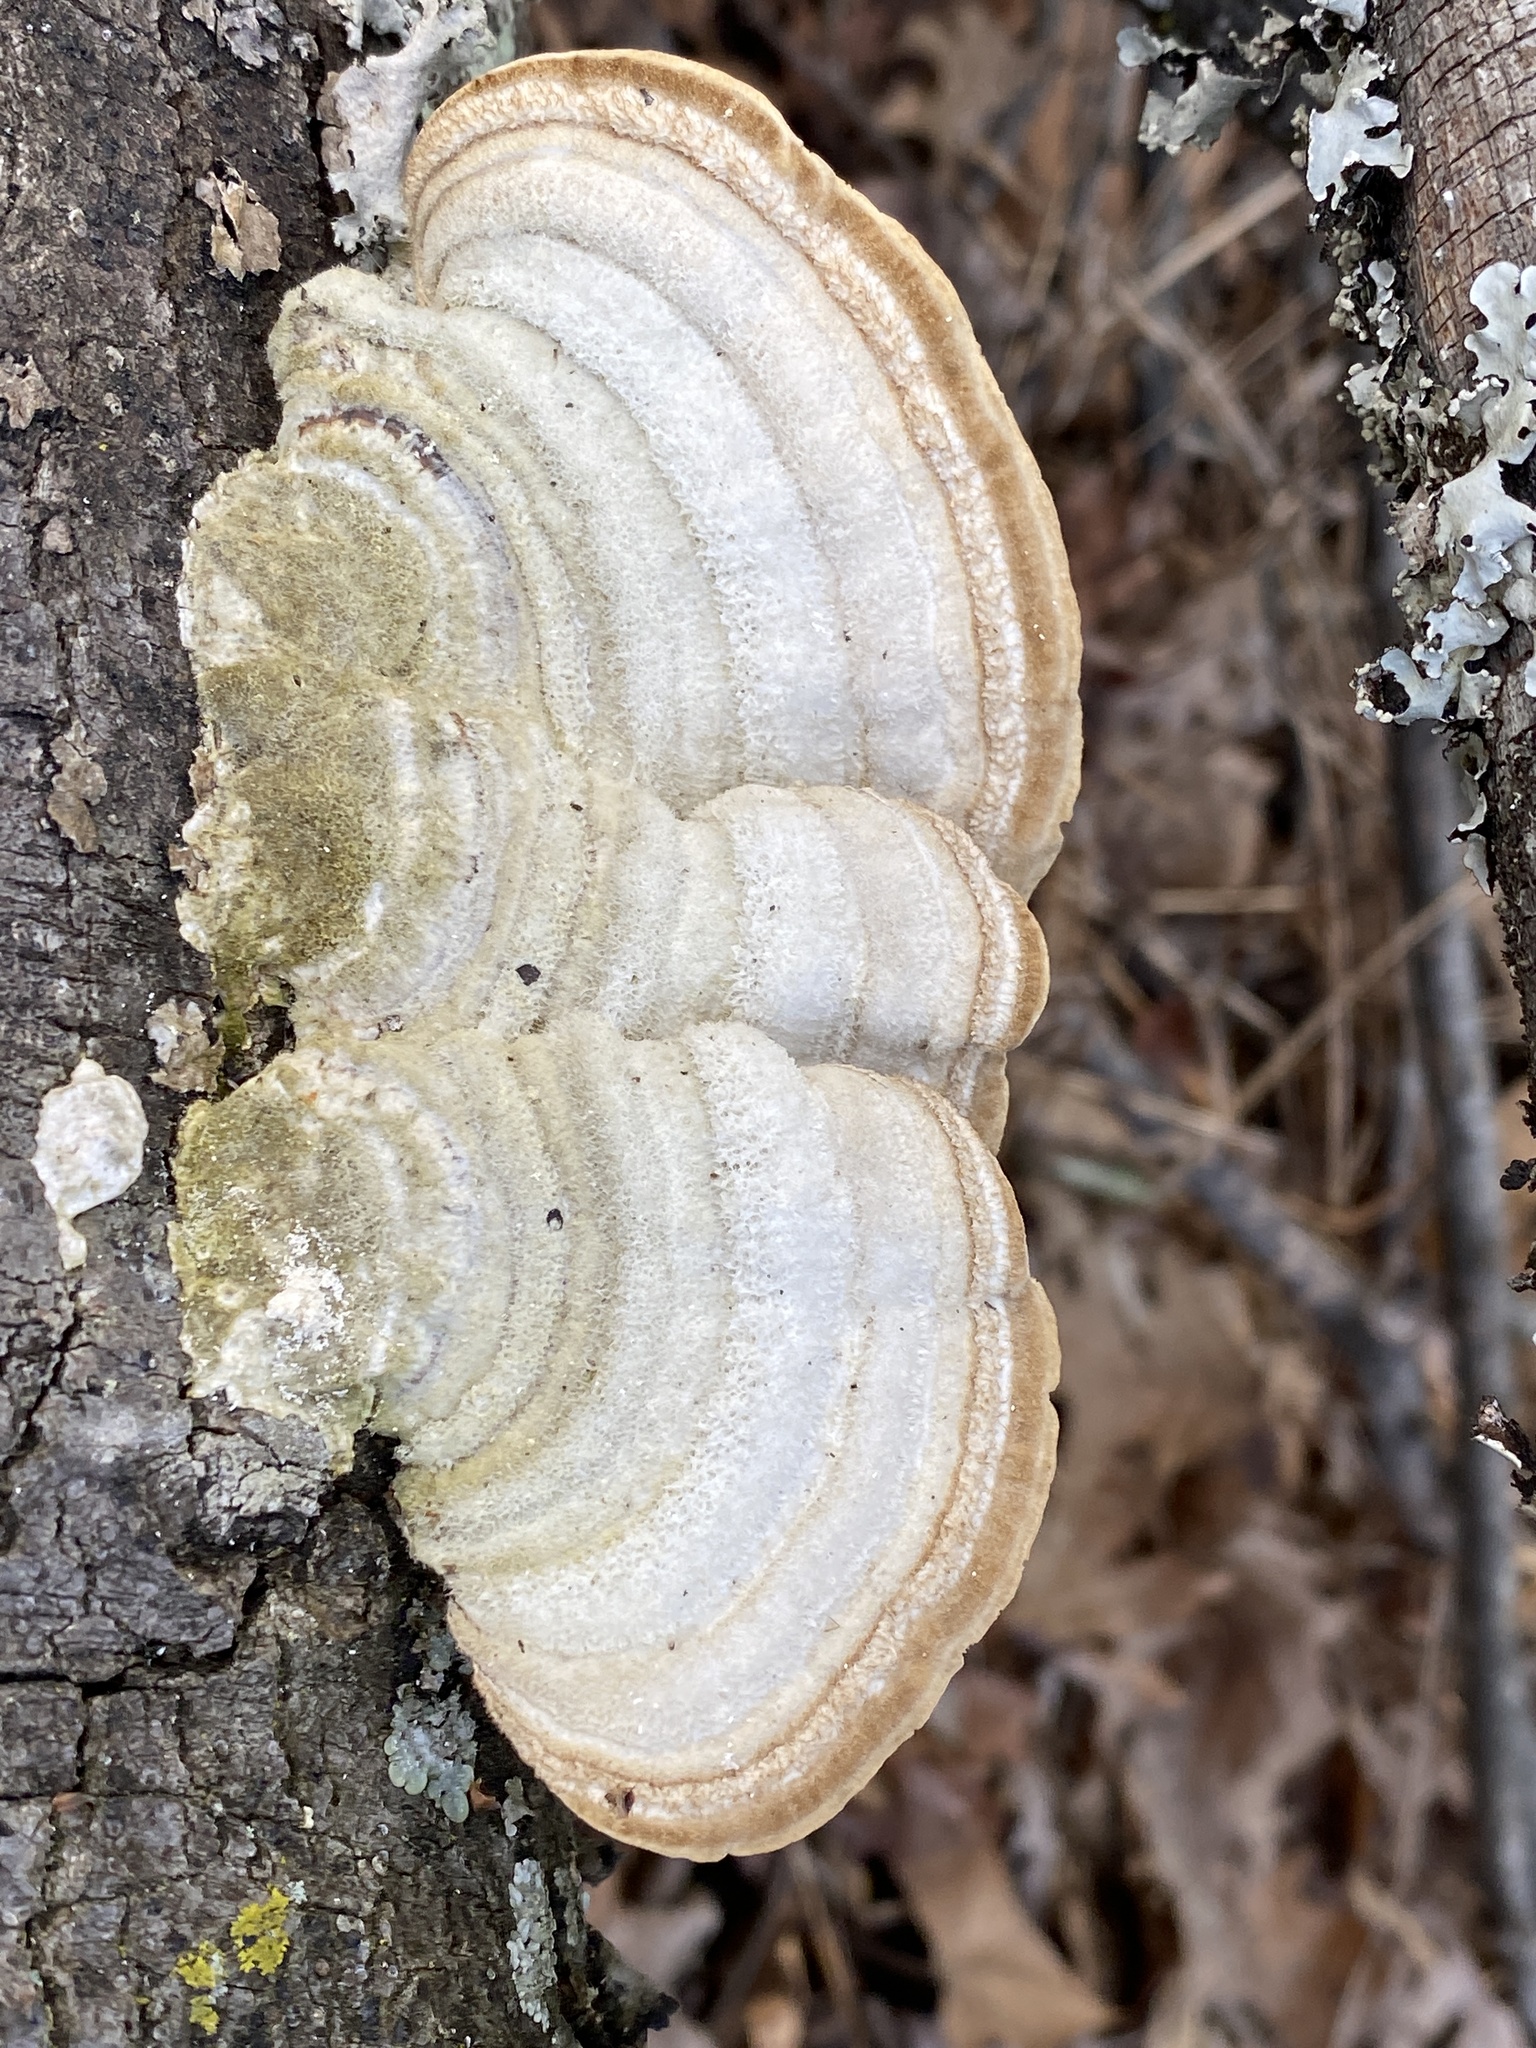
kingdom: Fungi
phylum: Basidiomycota
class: Agaricomycetes
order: Polyporales
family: Polyporaceae
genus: Trametes
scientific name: Trametes hirsuta
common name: Hairy bracket
